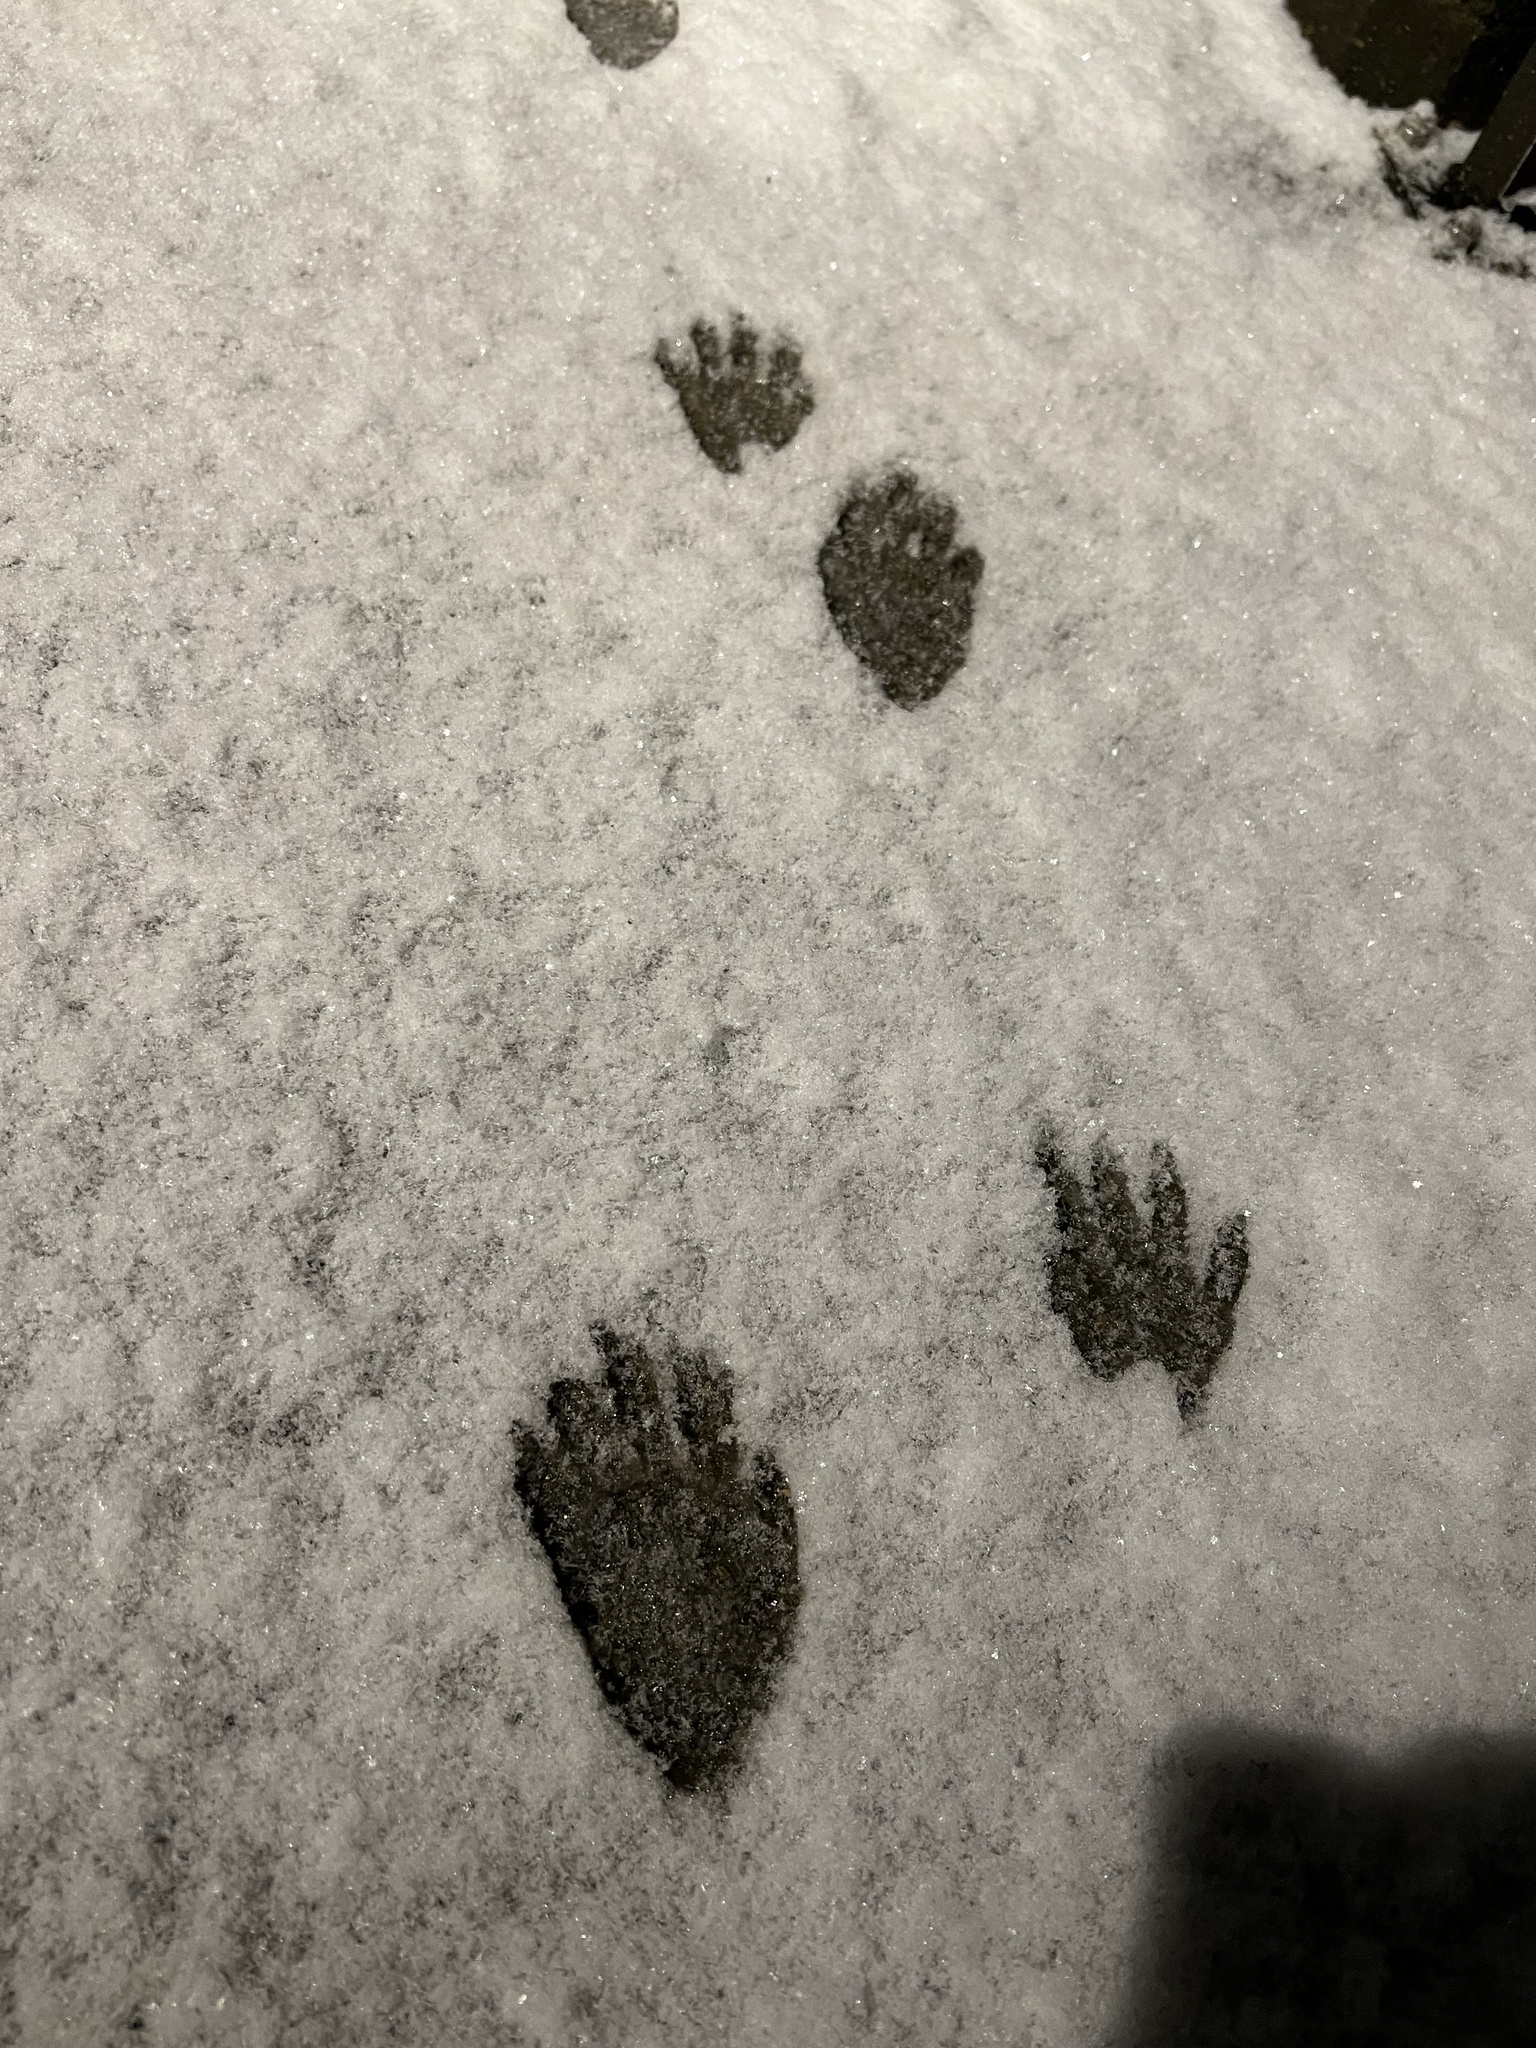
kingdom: Animalia
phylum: Chordata
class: Mammalia
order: Carnivora
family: Procyonidae
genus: Procyon
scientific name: Procyon lotor
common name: Raccoon
